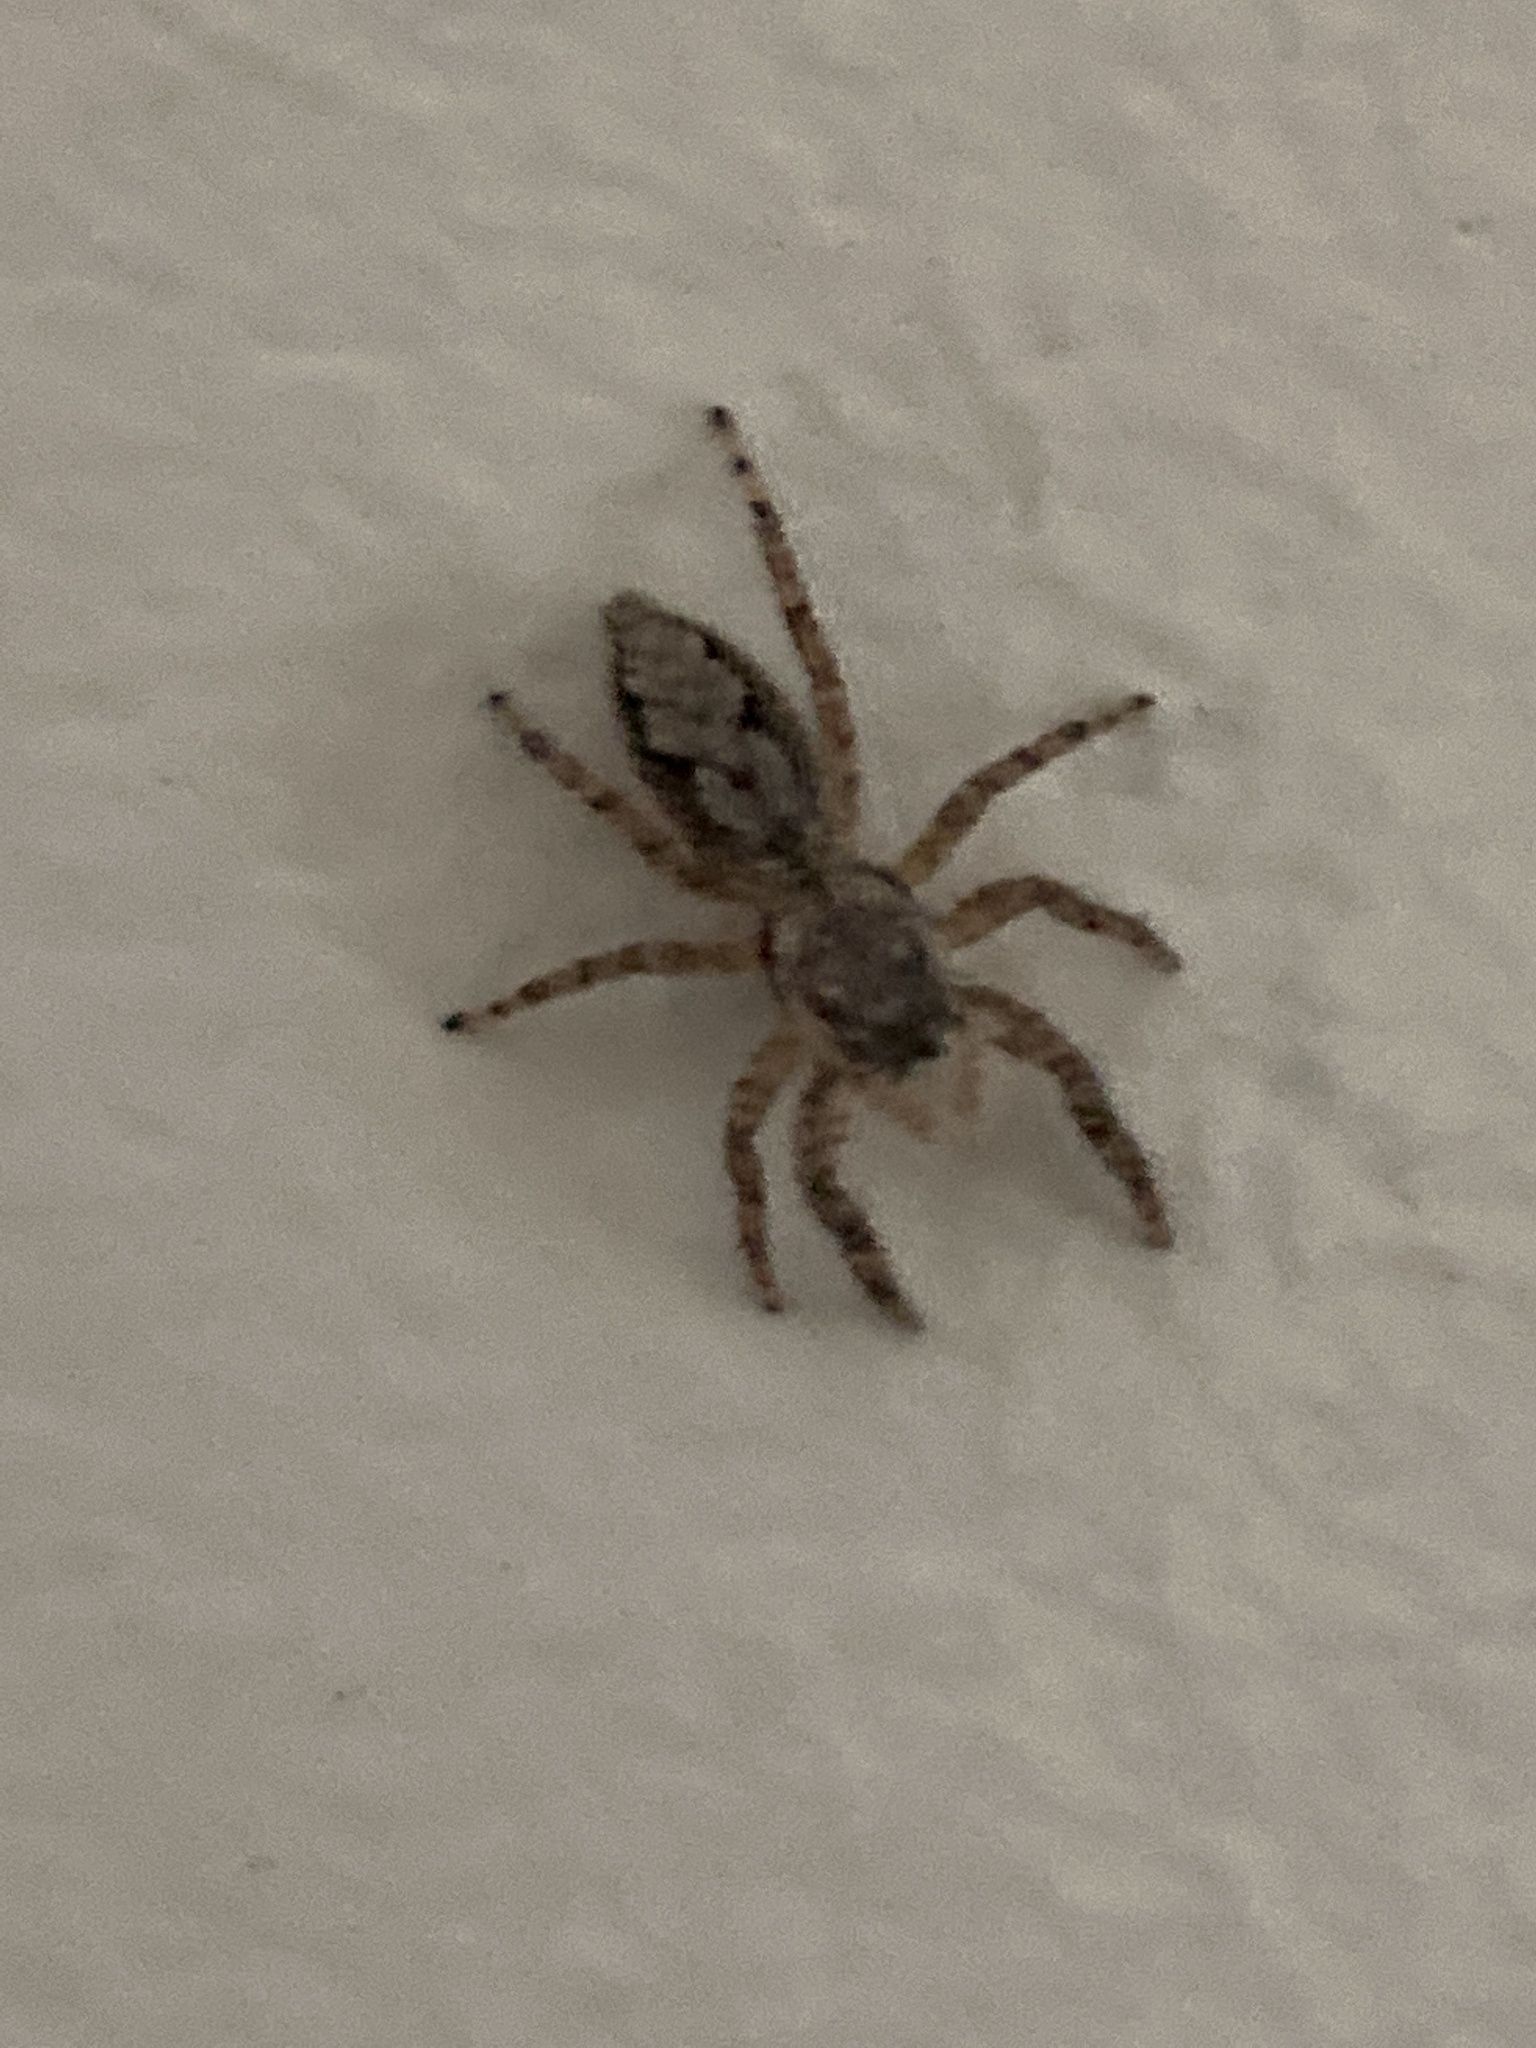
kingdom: Animalia
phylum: Arthropoda
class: Arachnida
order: Araneae
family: Salticidae
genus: Platycryptus
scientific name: Platycryptus undatus
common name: Tan jumping spider
